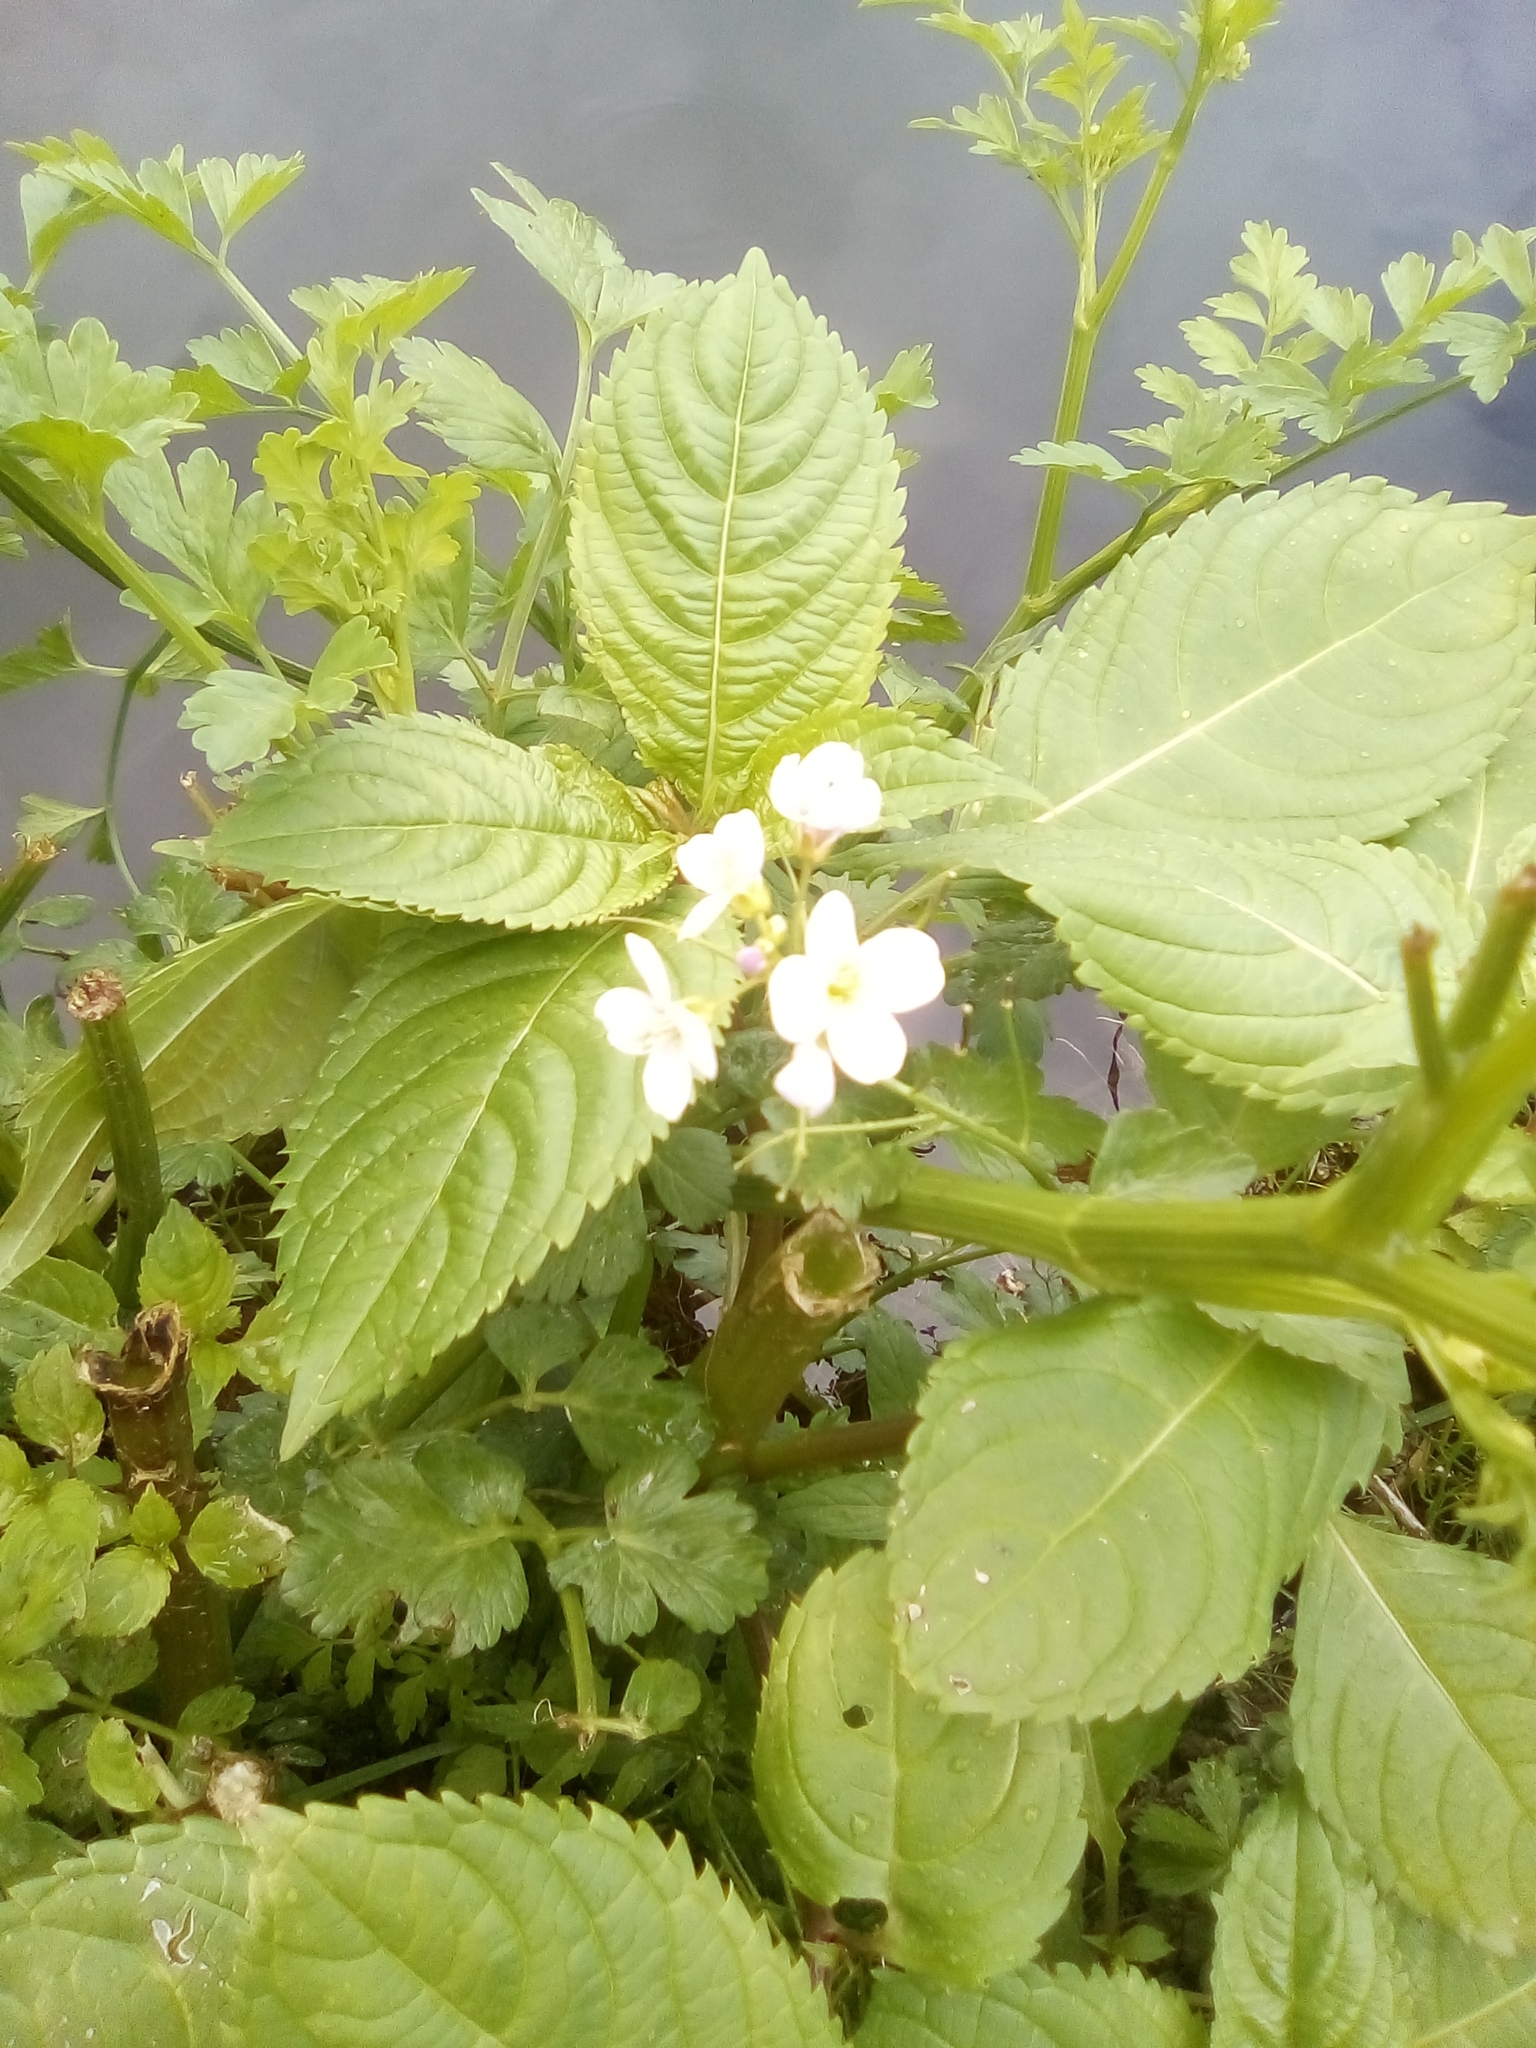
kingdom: Plantae
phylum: Tracheophyta
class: Magnoliopsida
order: Brassicales
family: Brassicaceae
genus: Cardamine
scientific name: Cardamine pratensis
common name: Cuckoo flower
